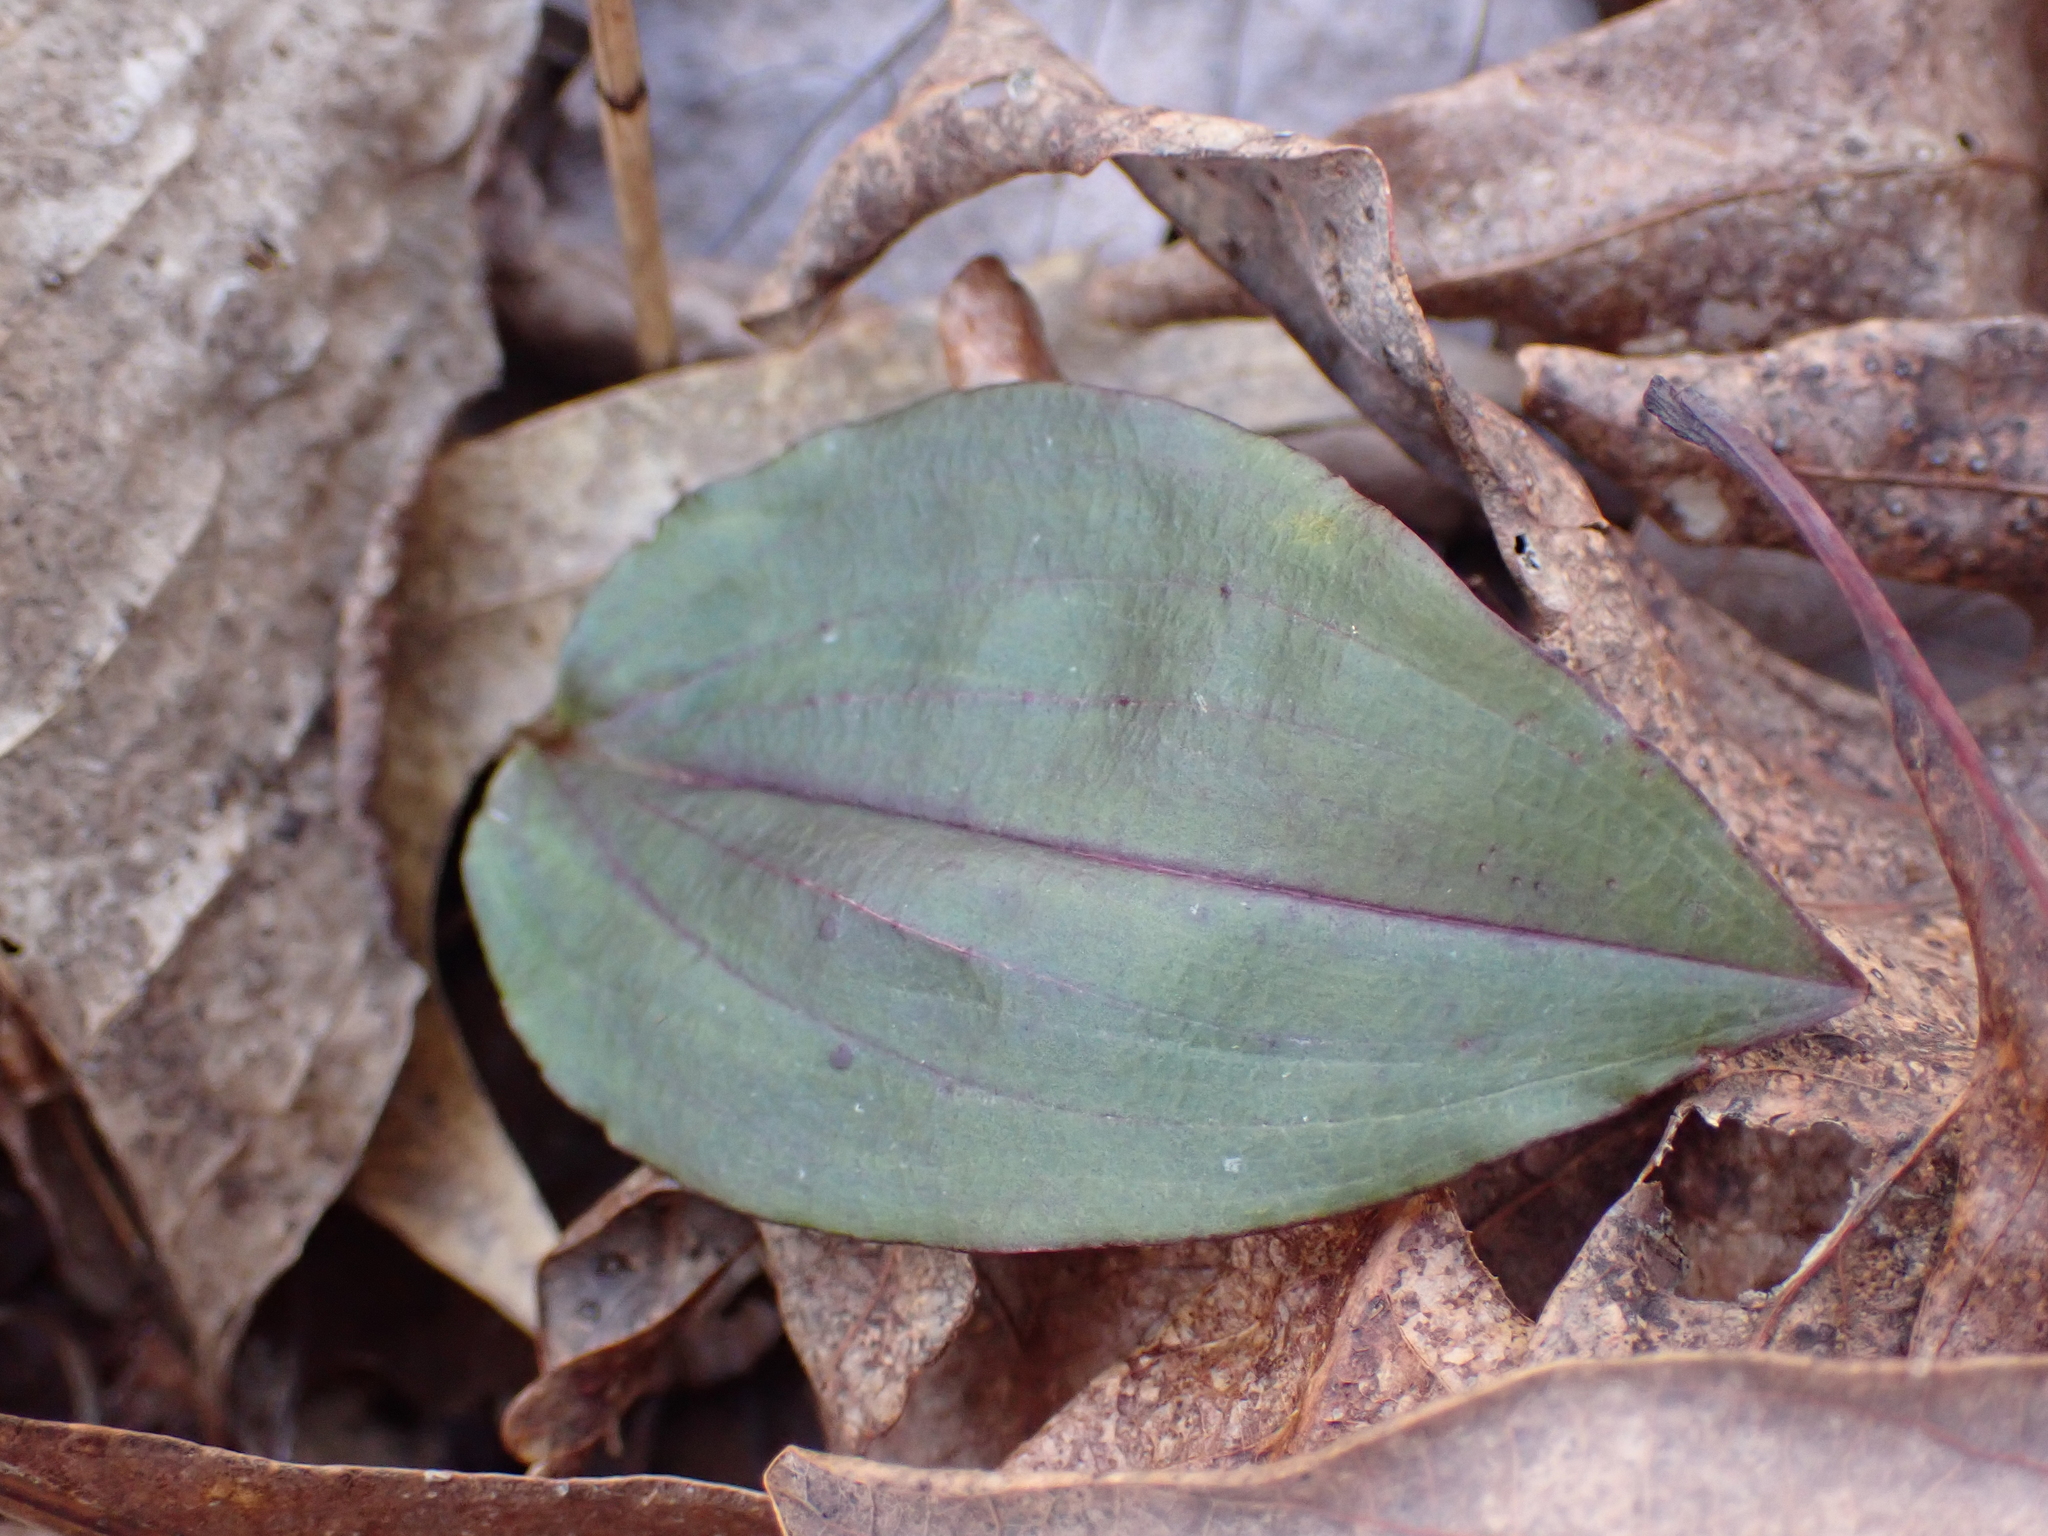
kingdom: Plantae
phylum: Tracheophyta
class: Liliopsida
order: Asparagales
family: Orchidaceae
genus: Tipularia
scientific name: Tipularia discolor
